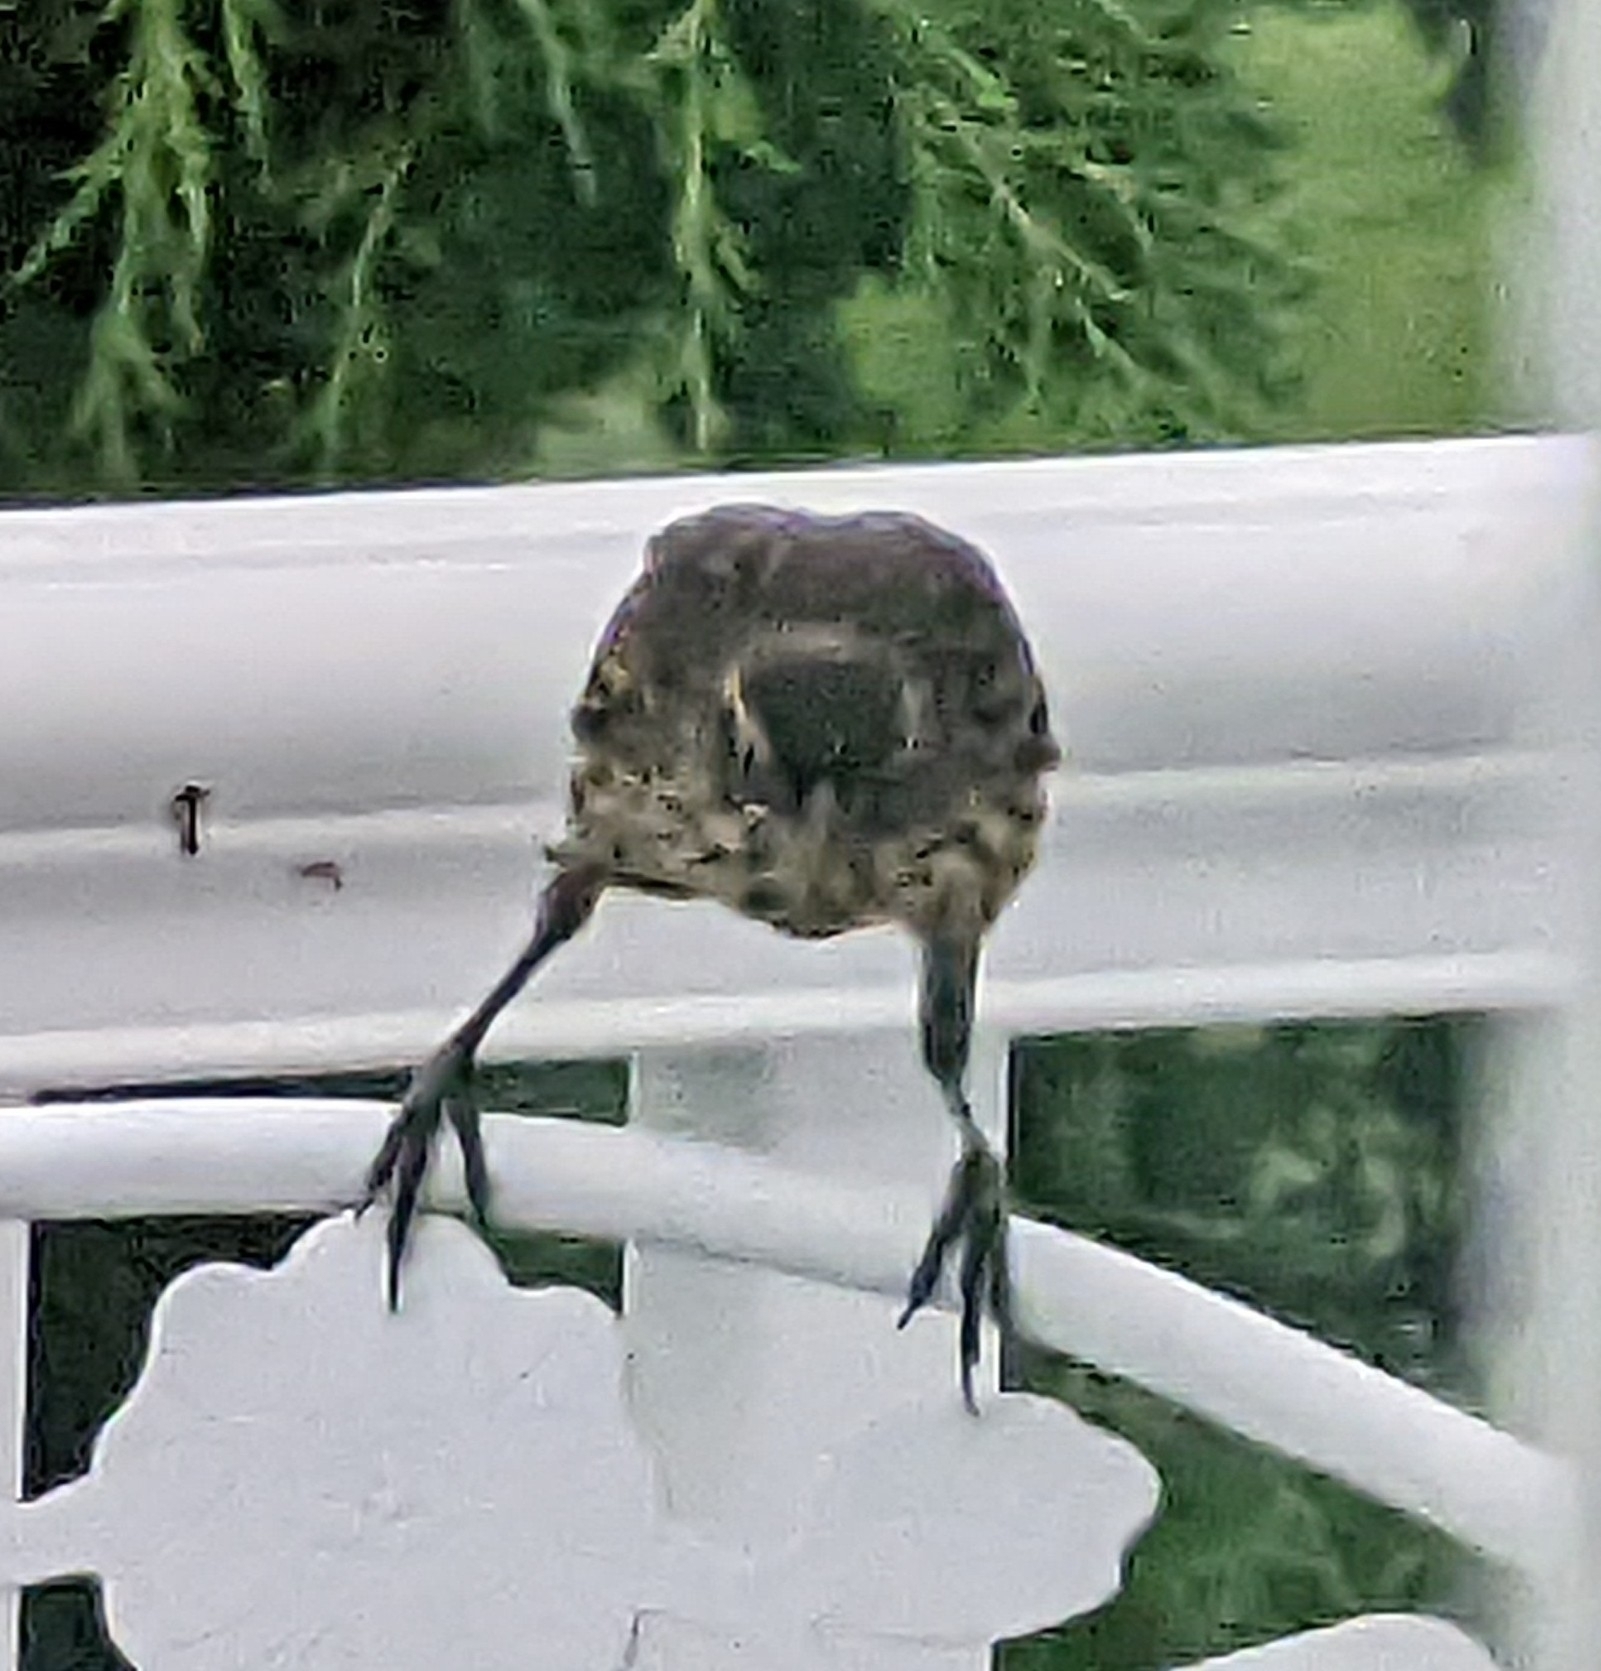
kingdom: Animalia
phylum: Chordata
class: Aves
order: Passeriformes
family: Icteridae
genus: Agelaius
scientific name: Agelaius phoeniceus
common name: Red-winged blackbird
